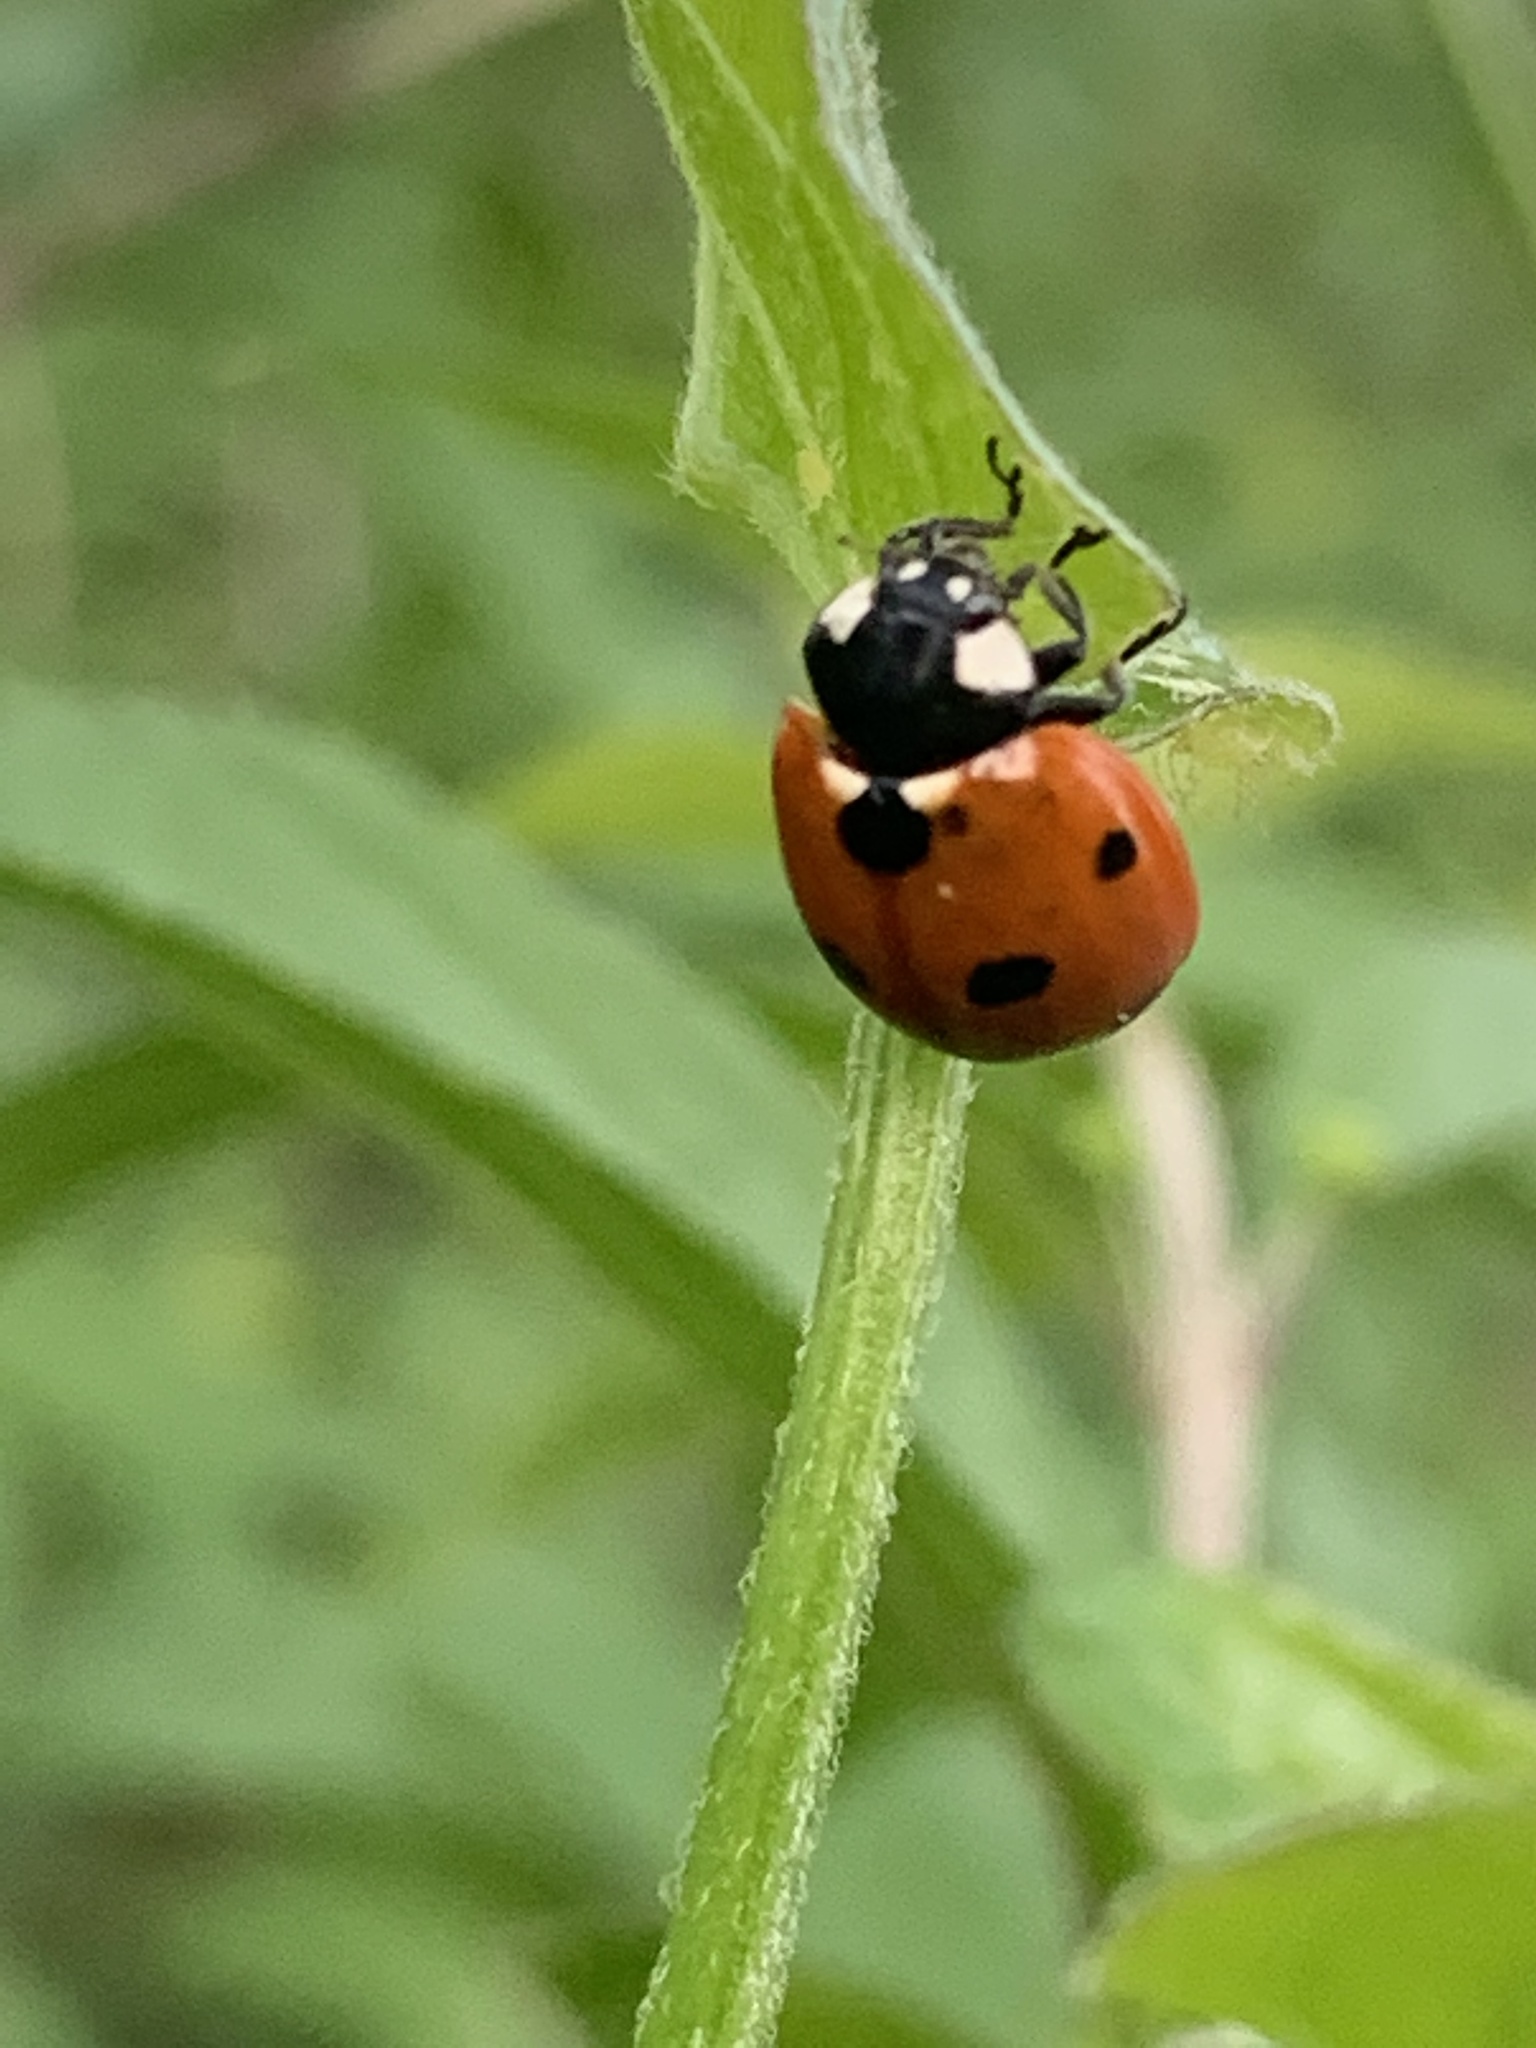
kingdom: Animalia
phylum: Arthropoda
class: Insecta
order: Coleoptera
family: Coccinellidae
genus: Coccinella
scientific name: Coccinella septempunctata
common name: Sevenspotted lady beetle
